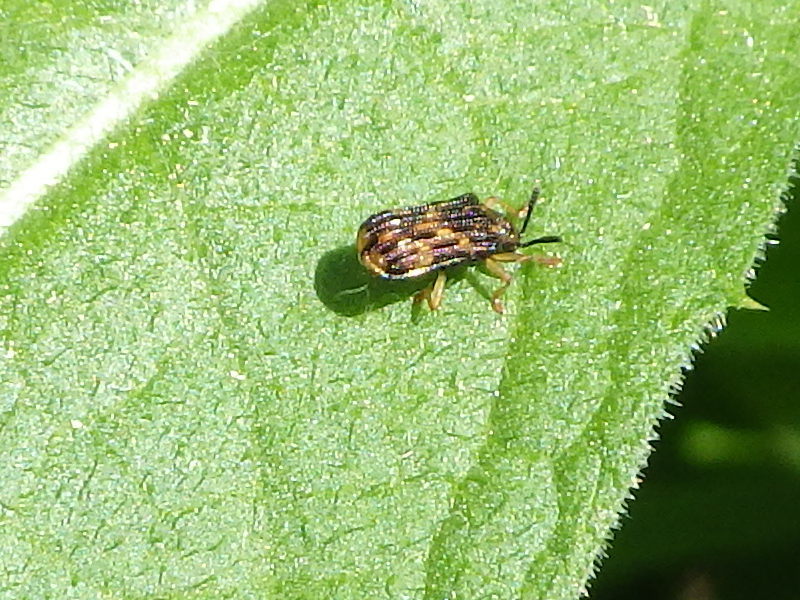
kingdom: Animalia
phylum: Arthropoda
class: Insecta
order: Coleoptera
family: Chrysomelidae
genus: Sumitrosis
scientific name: Sumitrosis inaequalis
